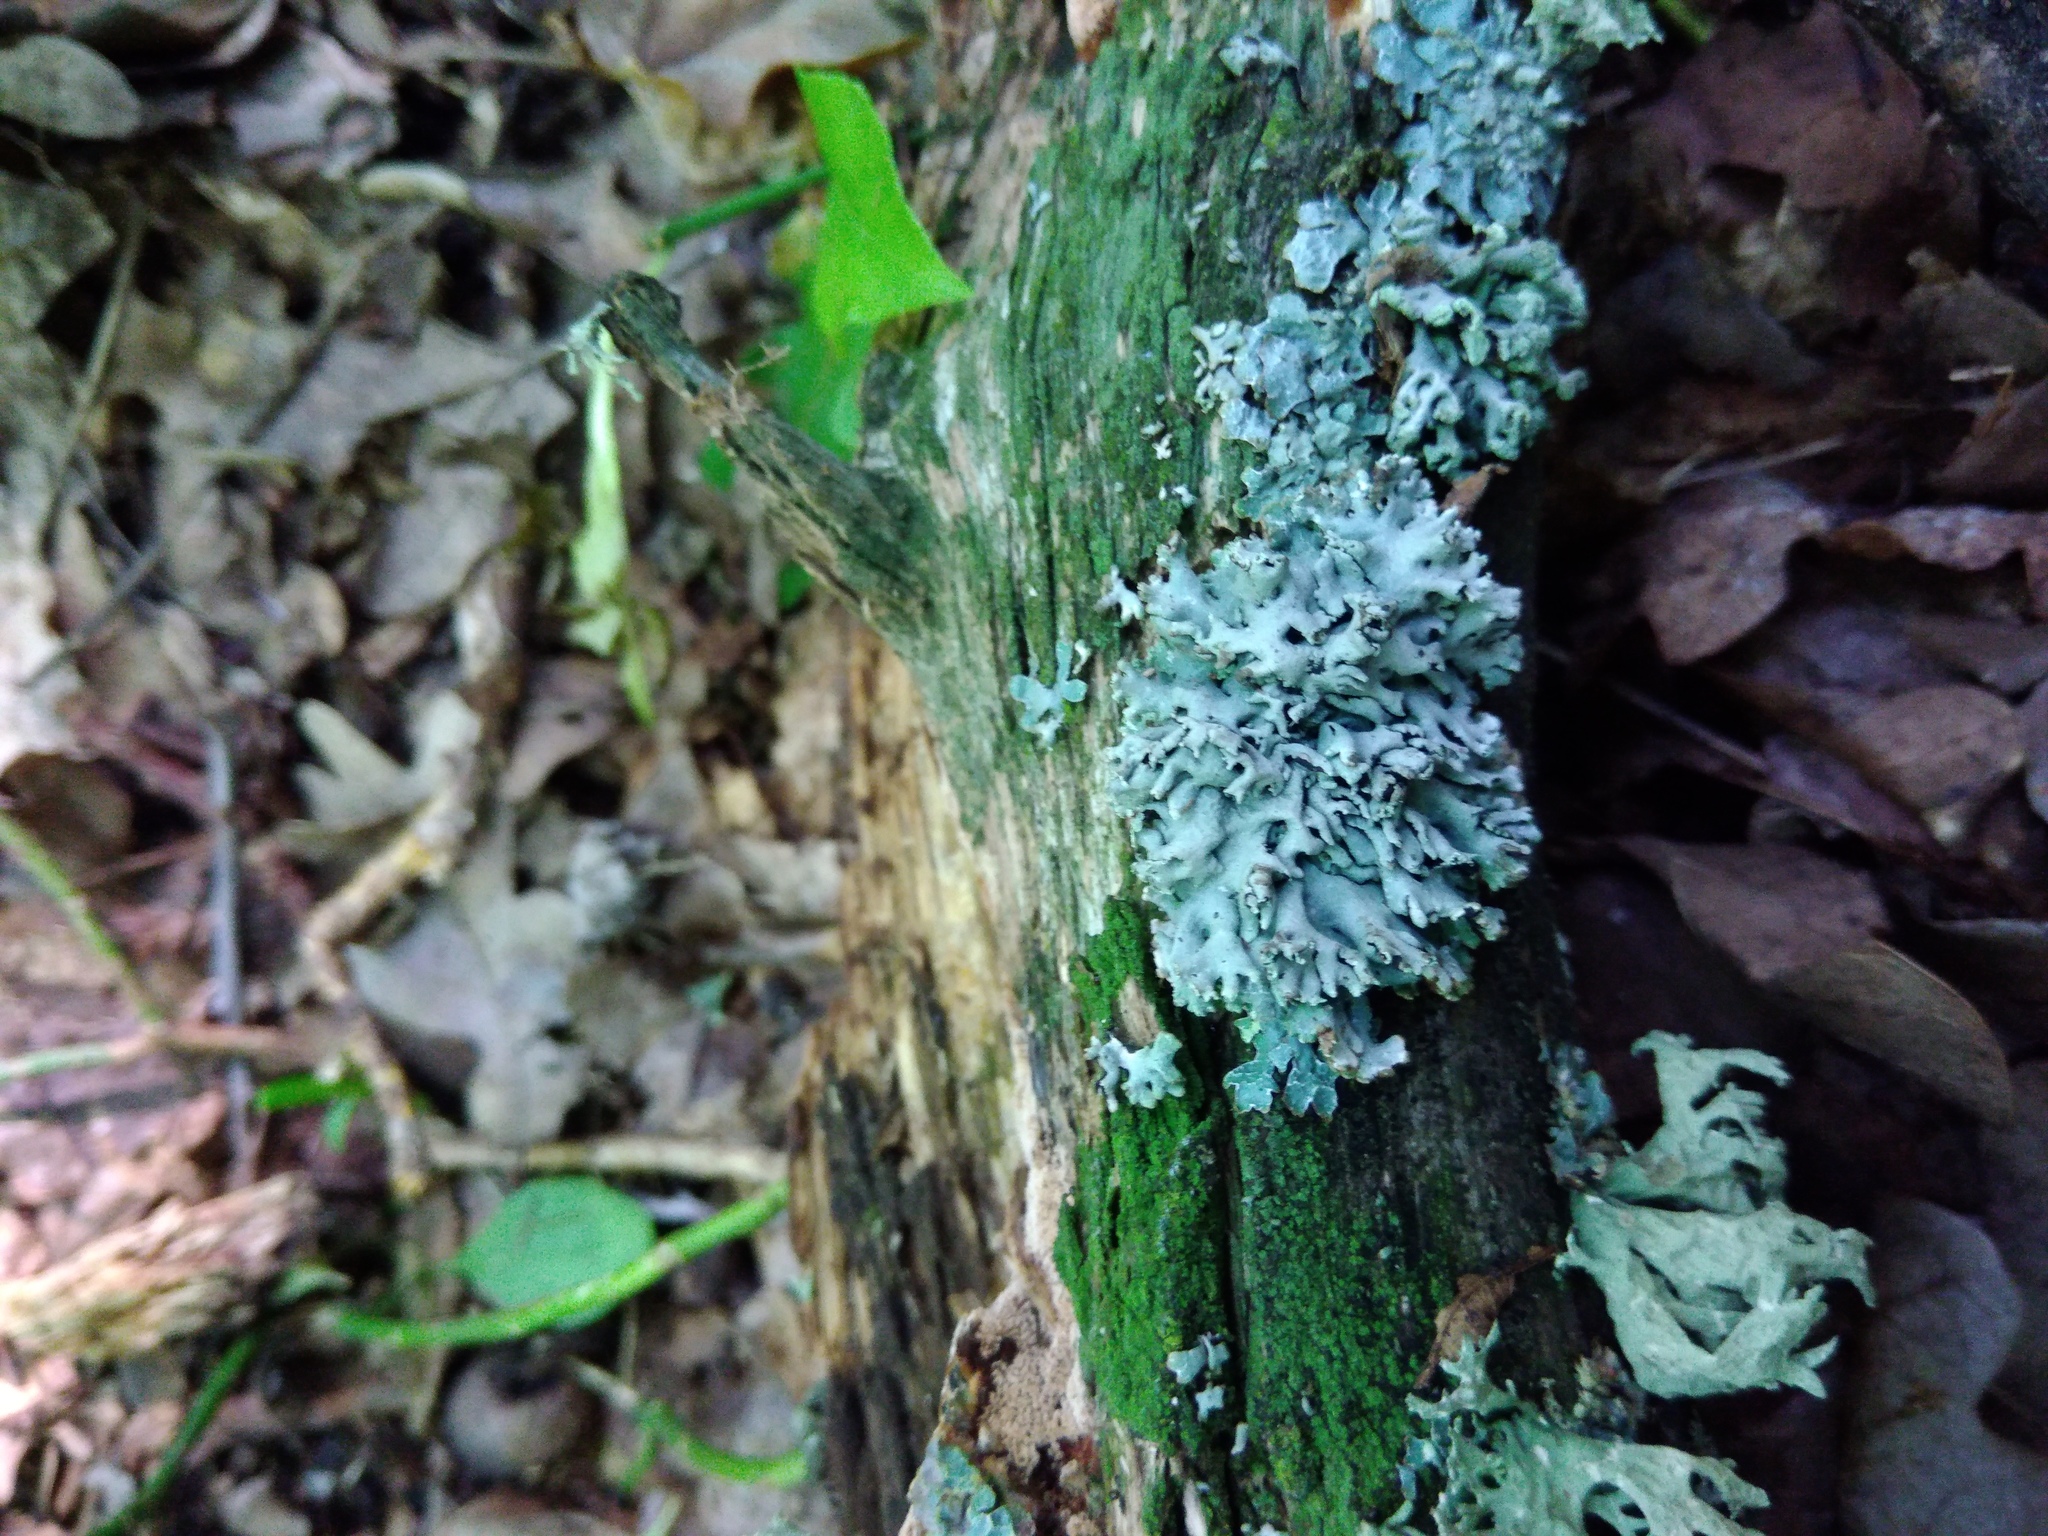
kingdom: Fungi
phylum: Ascomycota
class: Lecanoromycetes
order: Lecanorales
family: Parmeliaceae
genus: Hypogymnia
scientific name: Hypogymnia physodes
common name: Dark crottle
